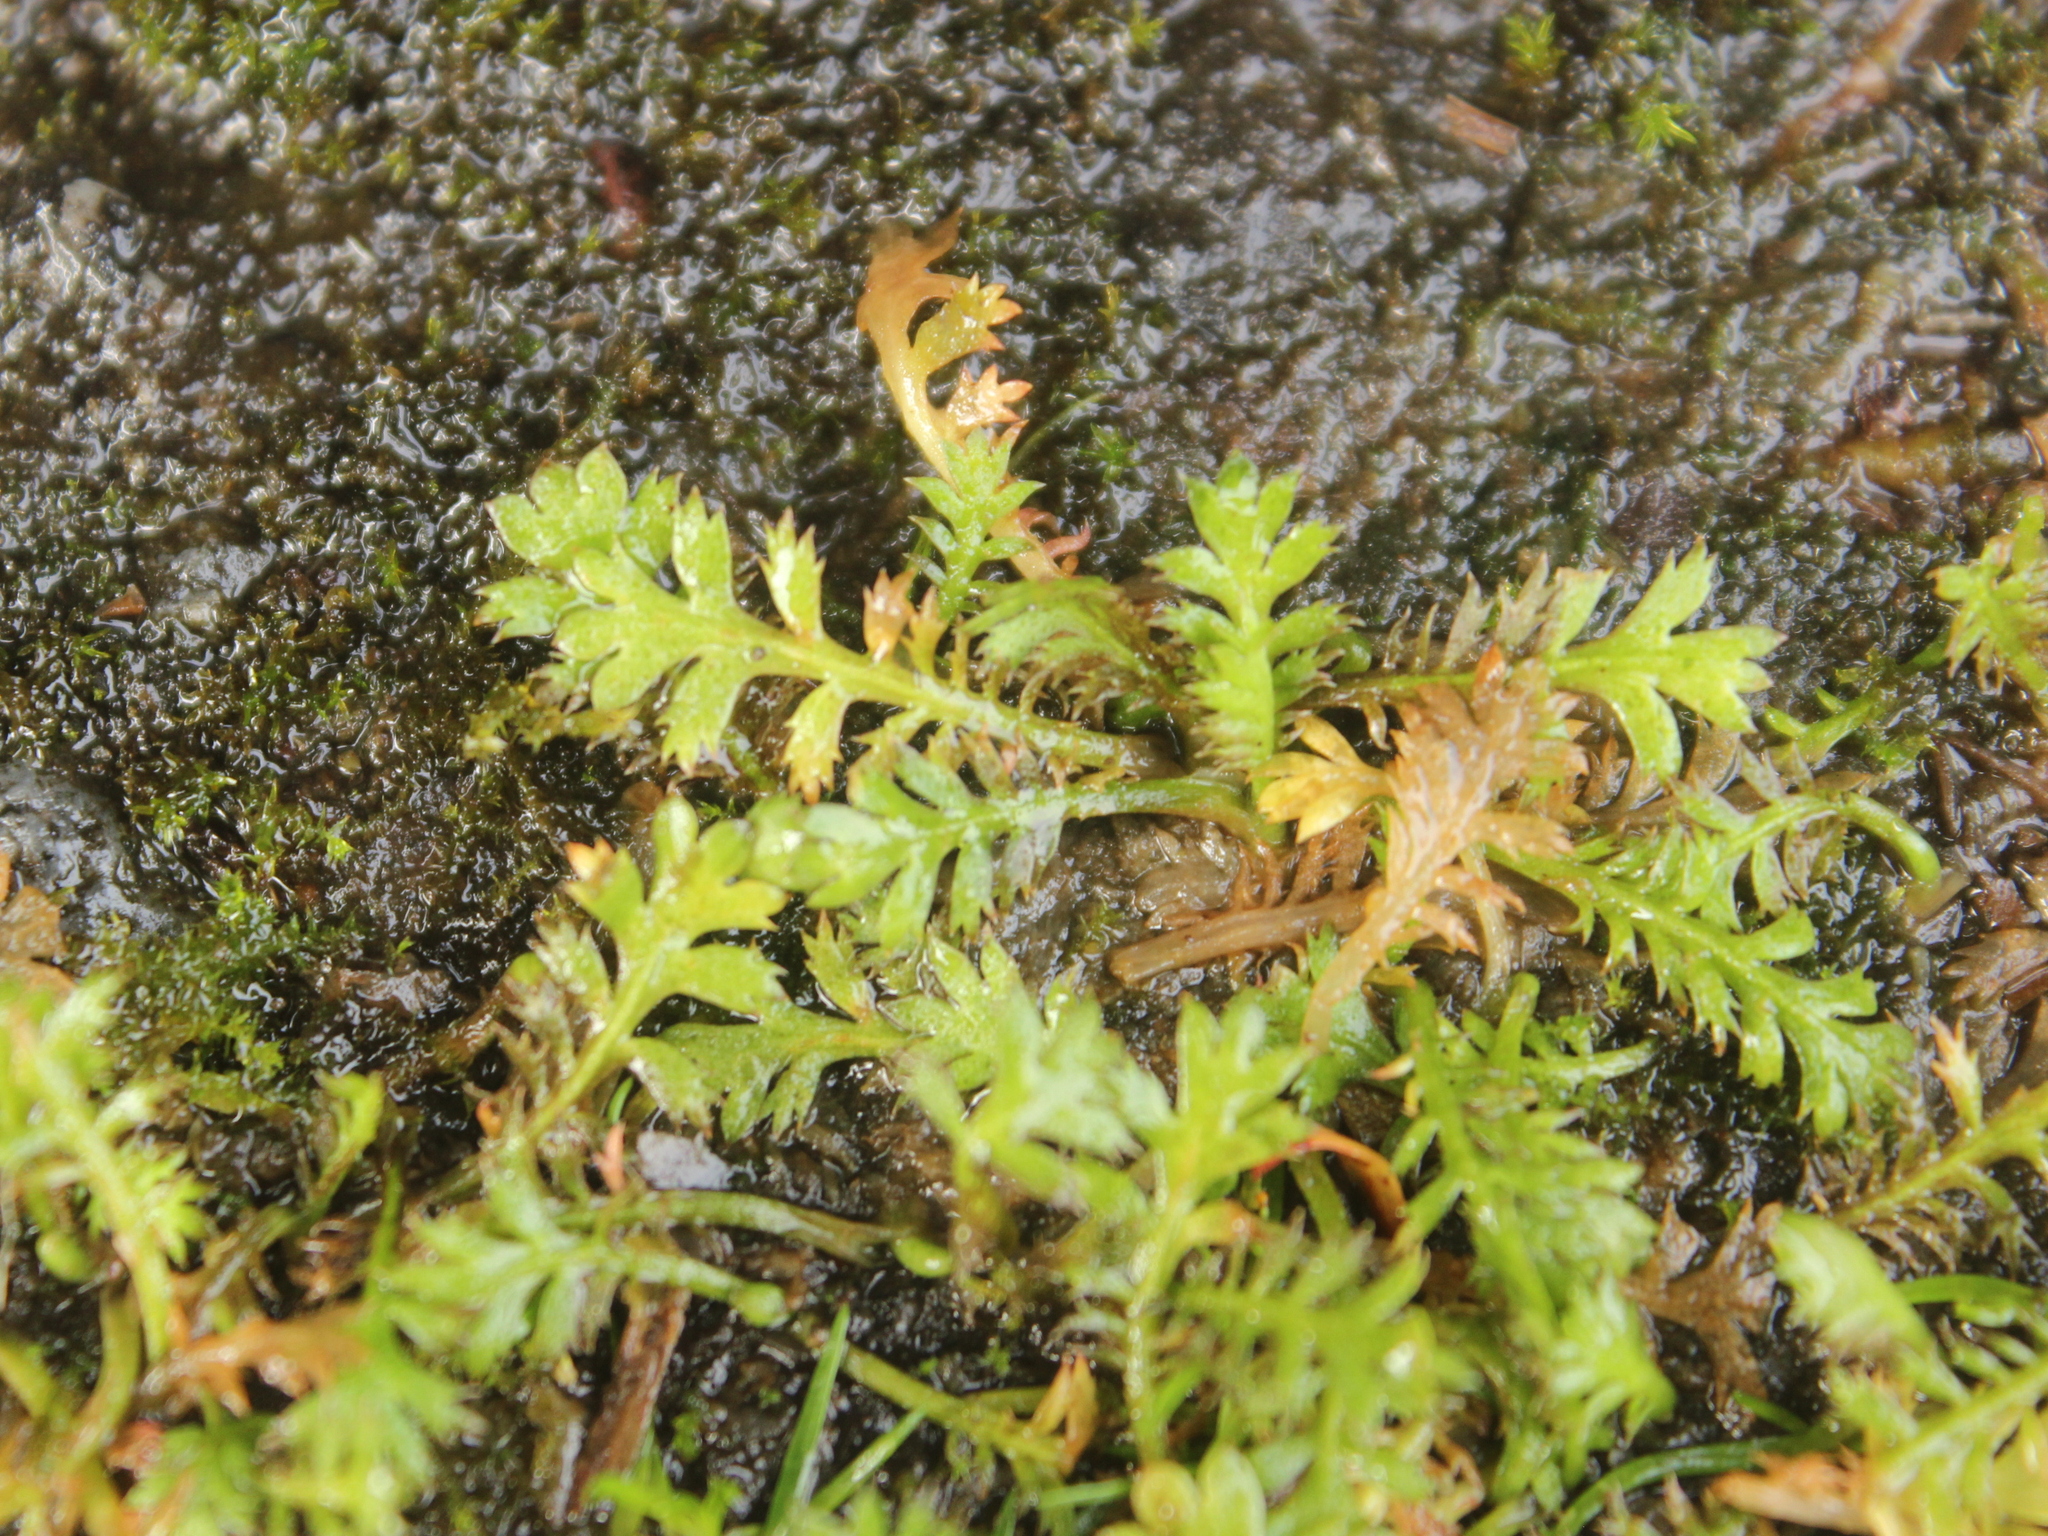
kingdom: Plantae
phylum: Tracheophyta
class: Magnoliopsida
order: Asterales
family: Asteraceae
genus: Leptinella
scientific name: Leptinella squalida
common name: New zealand brass-buttons
